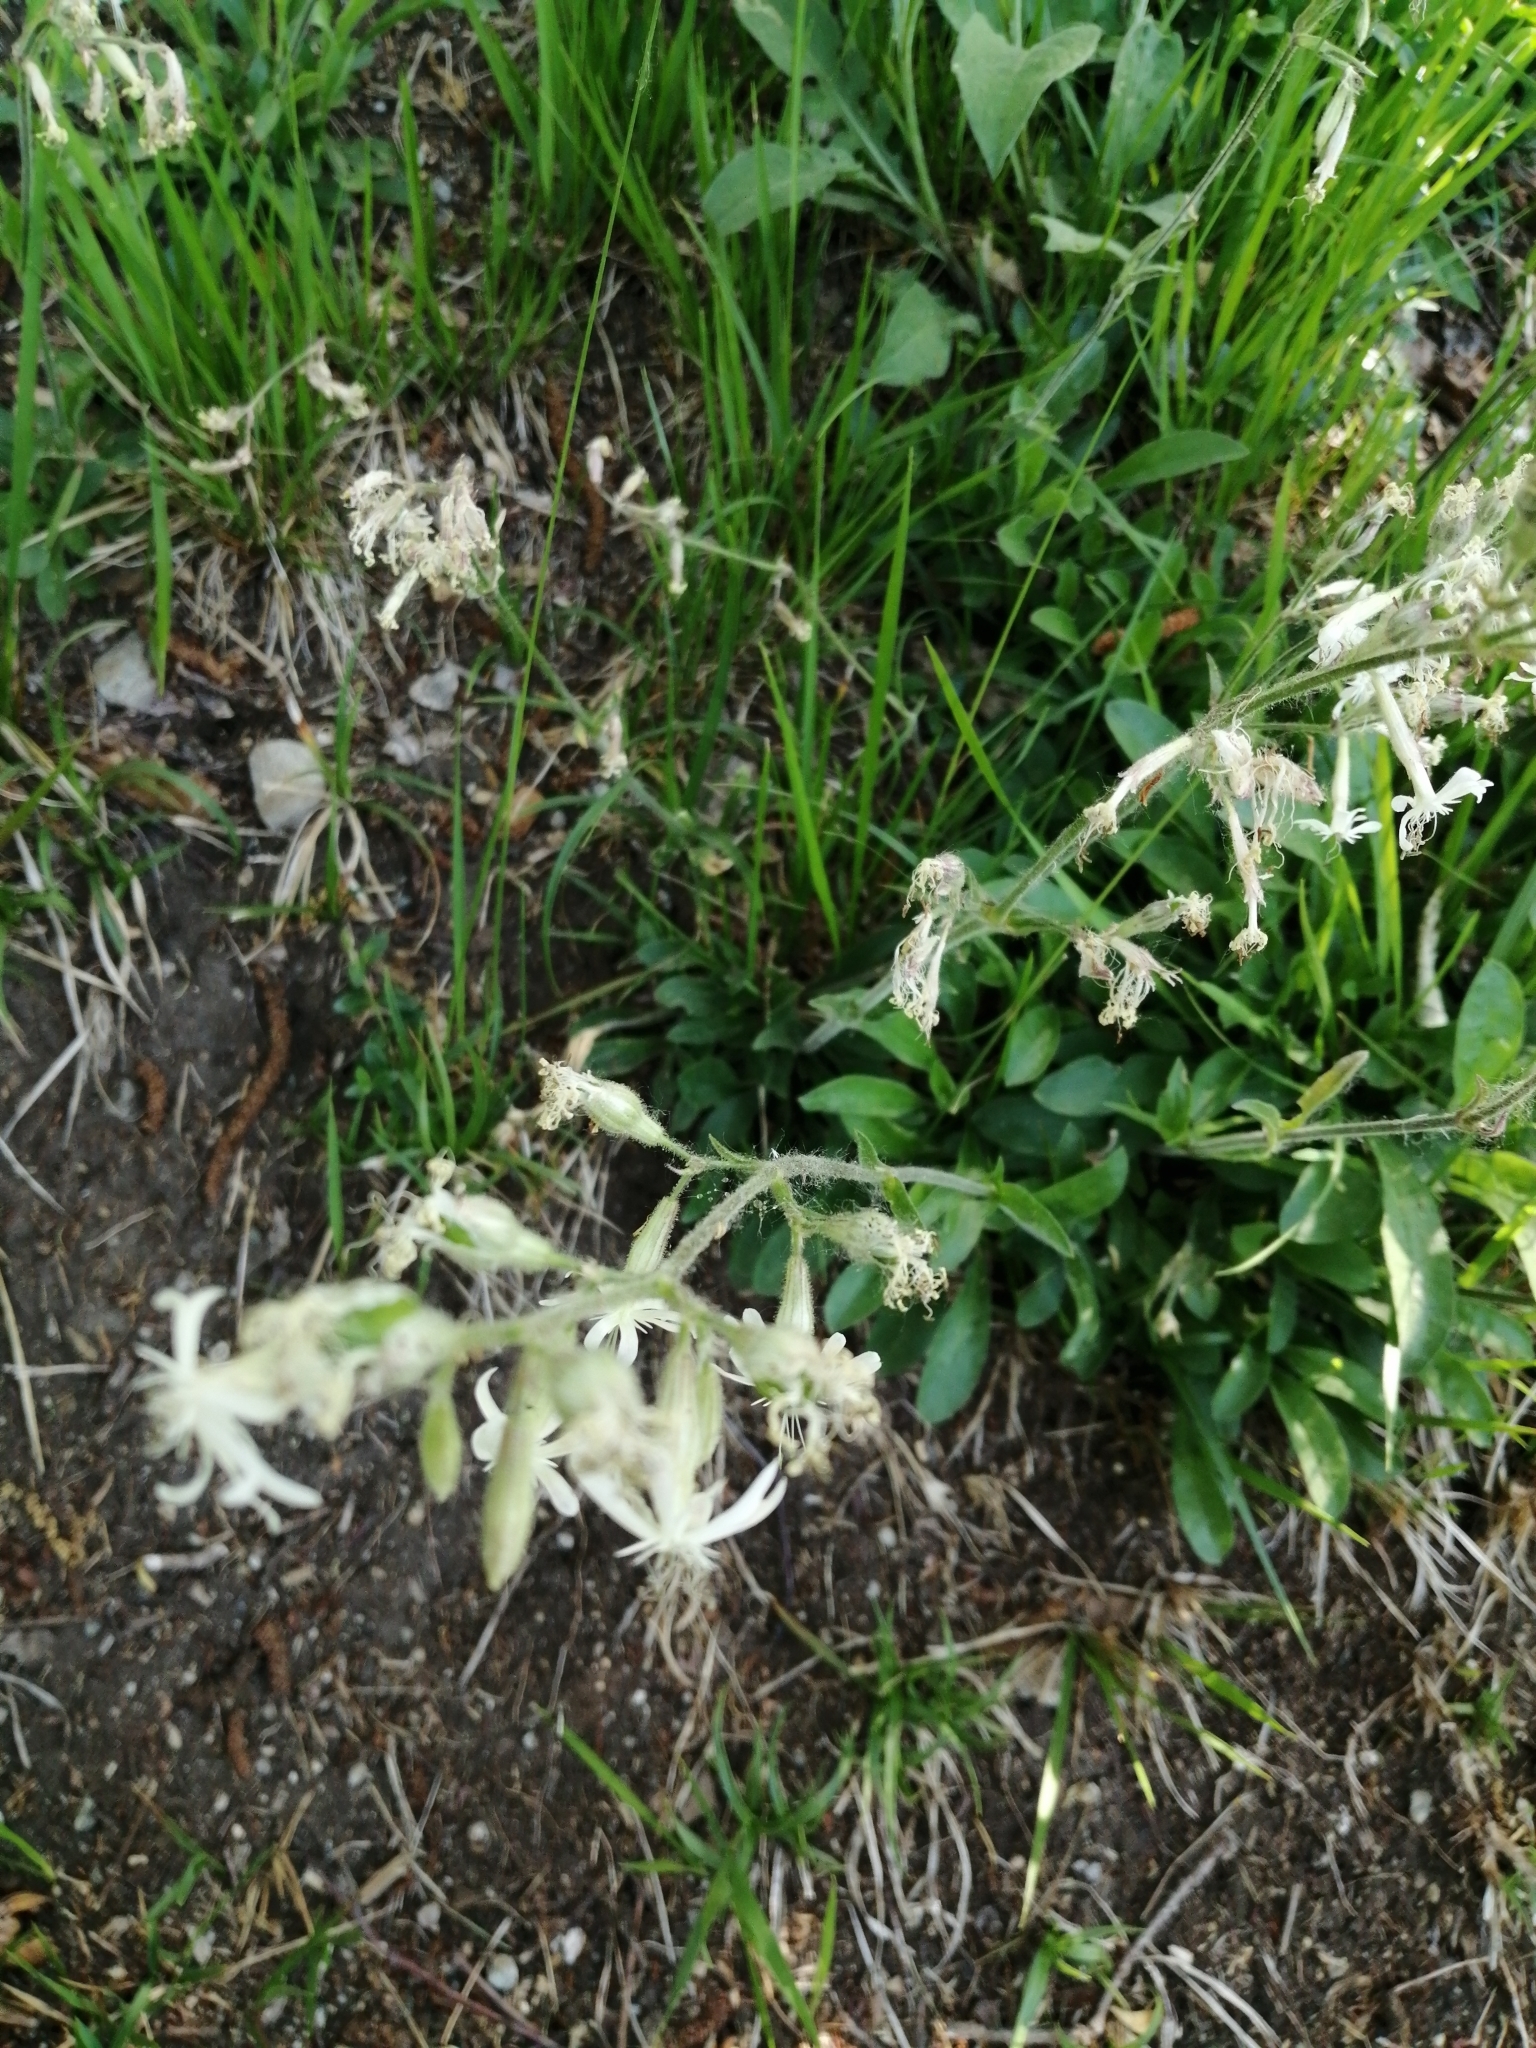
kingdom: Plantae
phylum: Tracheophyta
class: Magnoliopsida
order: Caryophyllales
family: Caryophyllaceae
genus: Silene
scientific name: Silene nutans
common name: Nottingham catchfly
